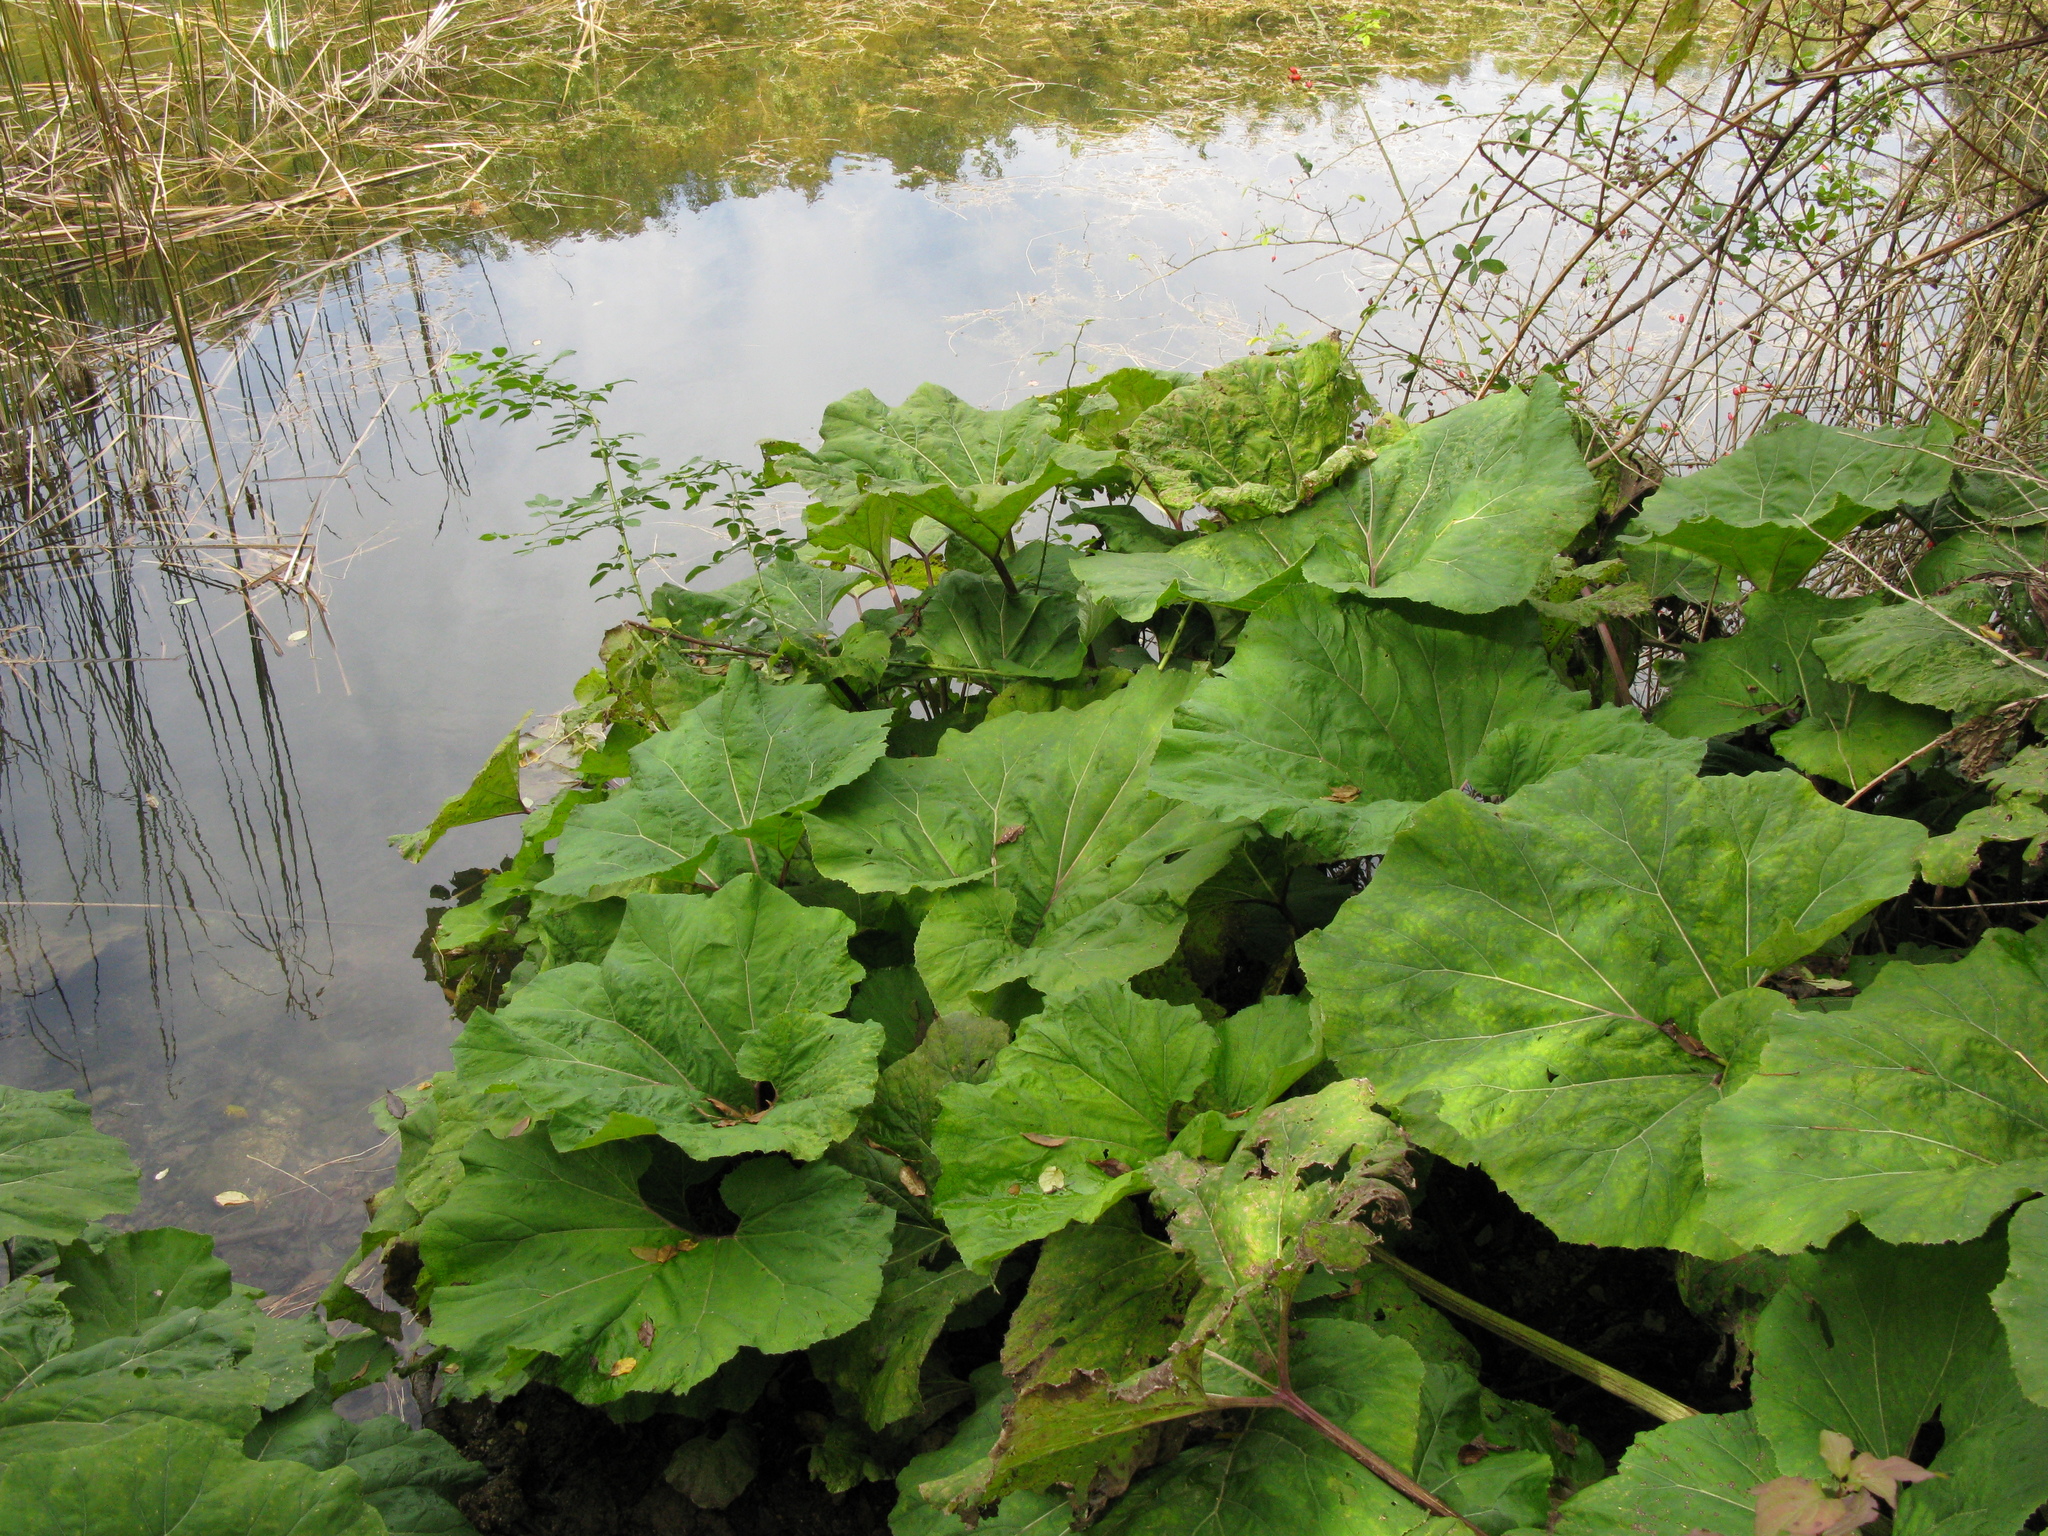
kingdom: Plantae
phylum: Tracheophyta
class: Magnoliopsida
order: Asterales
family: Asteraceae
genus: Petasites
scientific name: Petasites hybridus
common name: Butterbur
